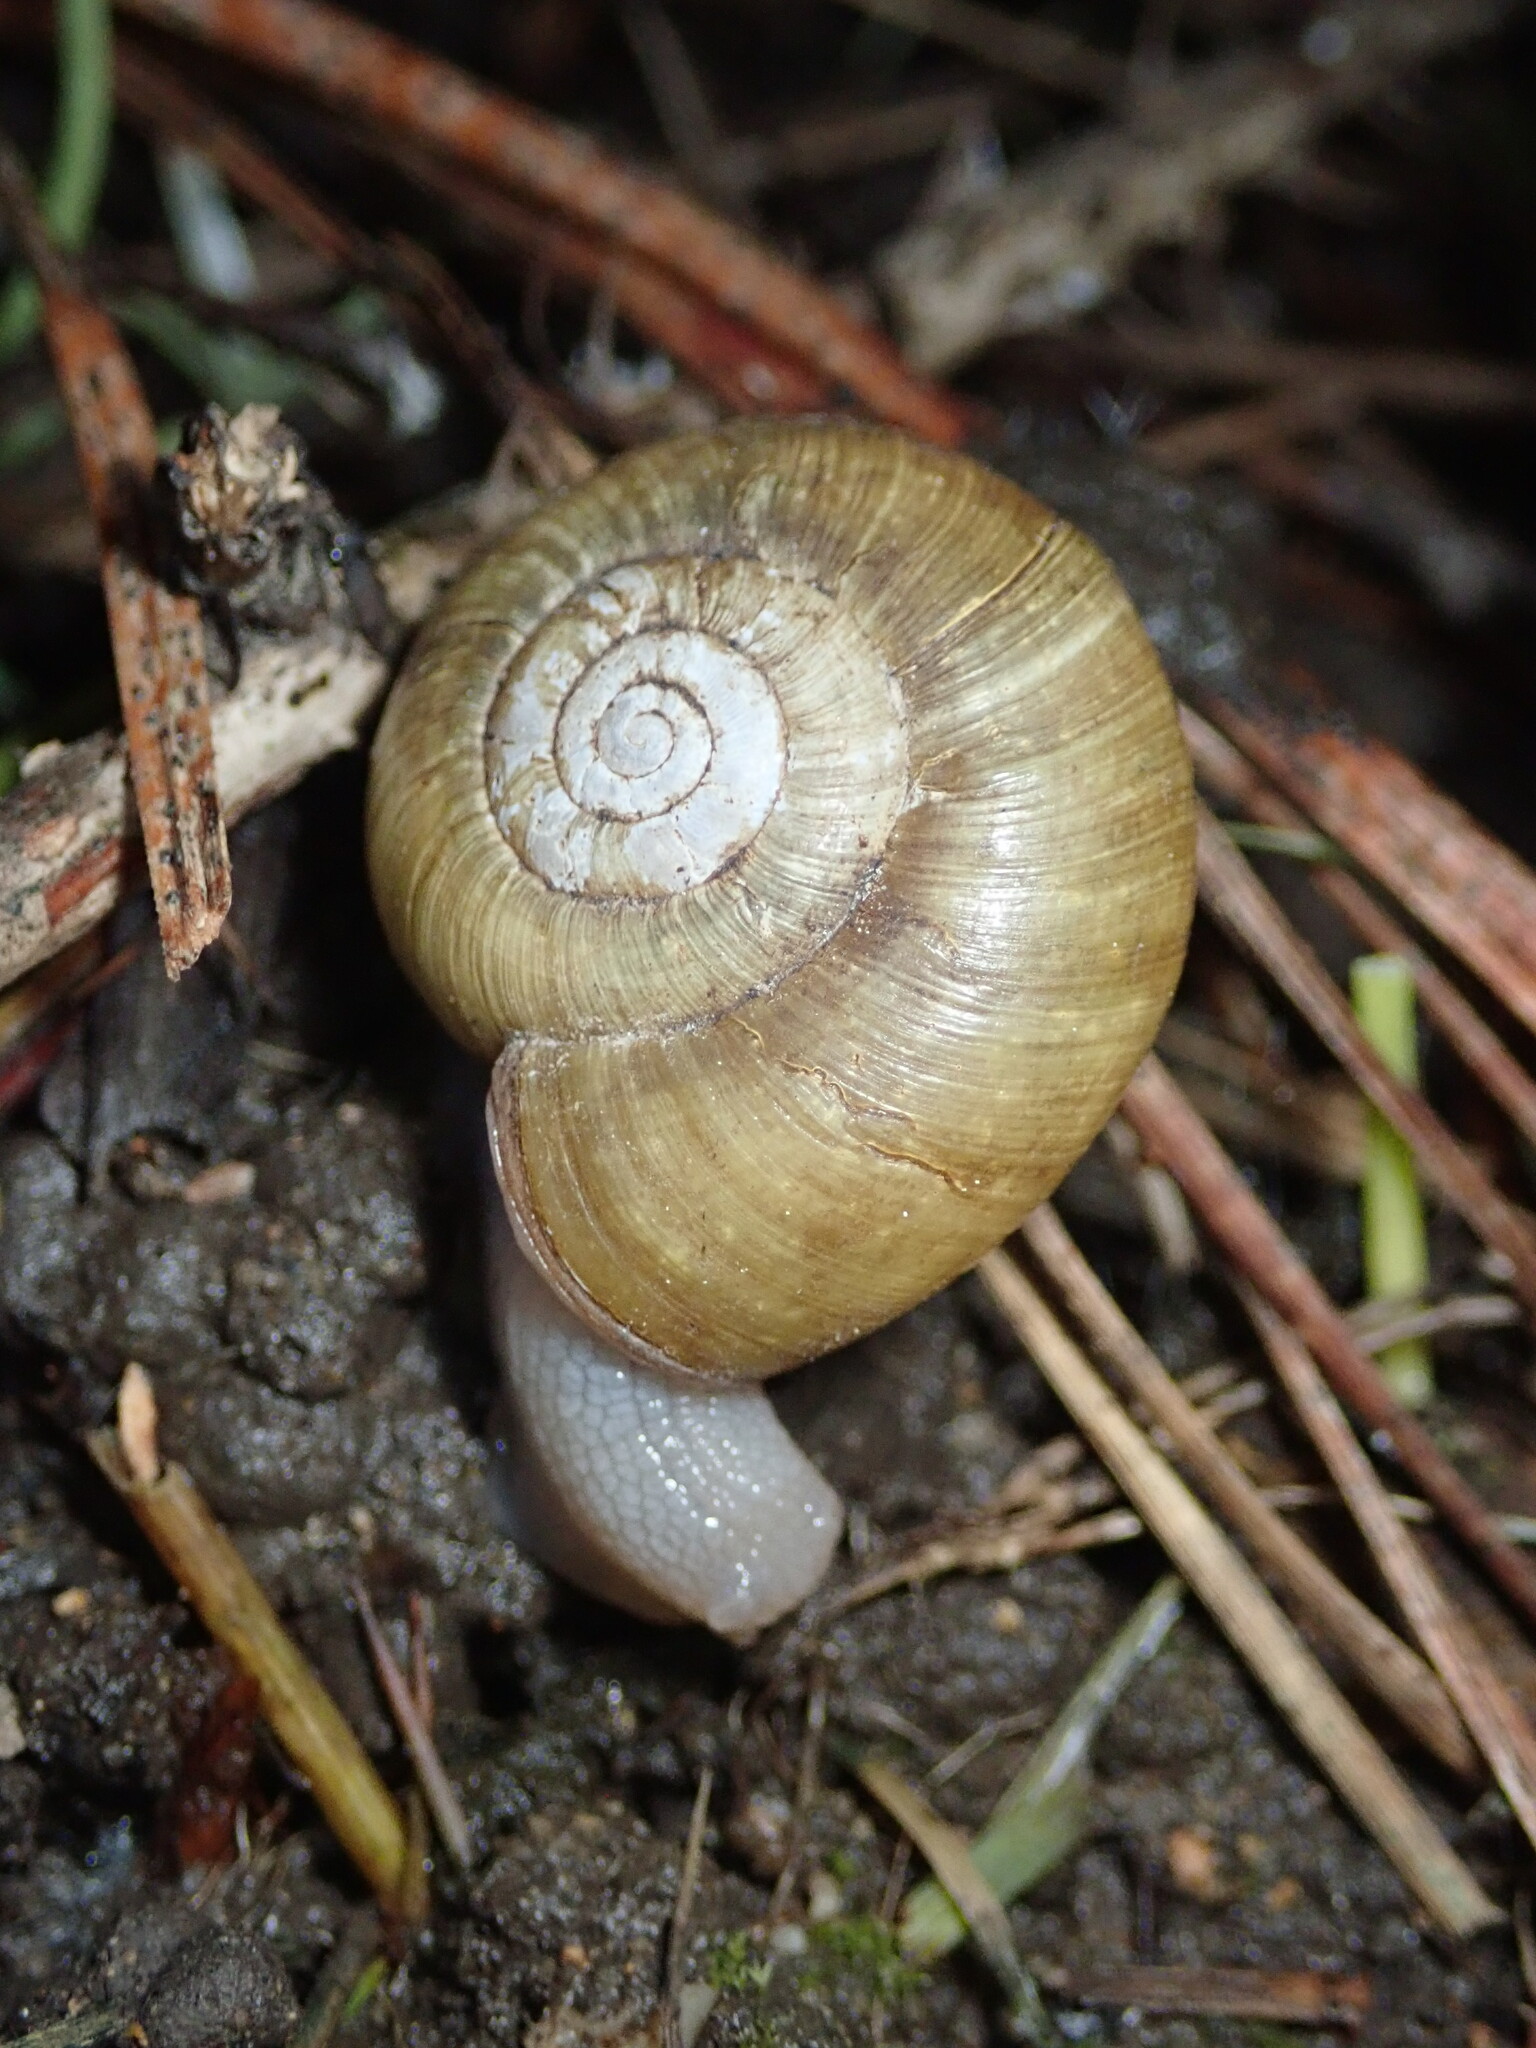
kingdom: Animalia
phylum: Mollusca
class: Gastropoda
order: Stylommatophora
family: Haplotrematidae
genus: Haplotrema
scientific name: Haplotrema minimum
